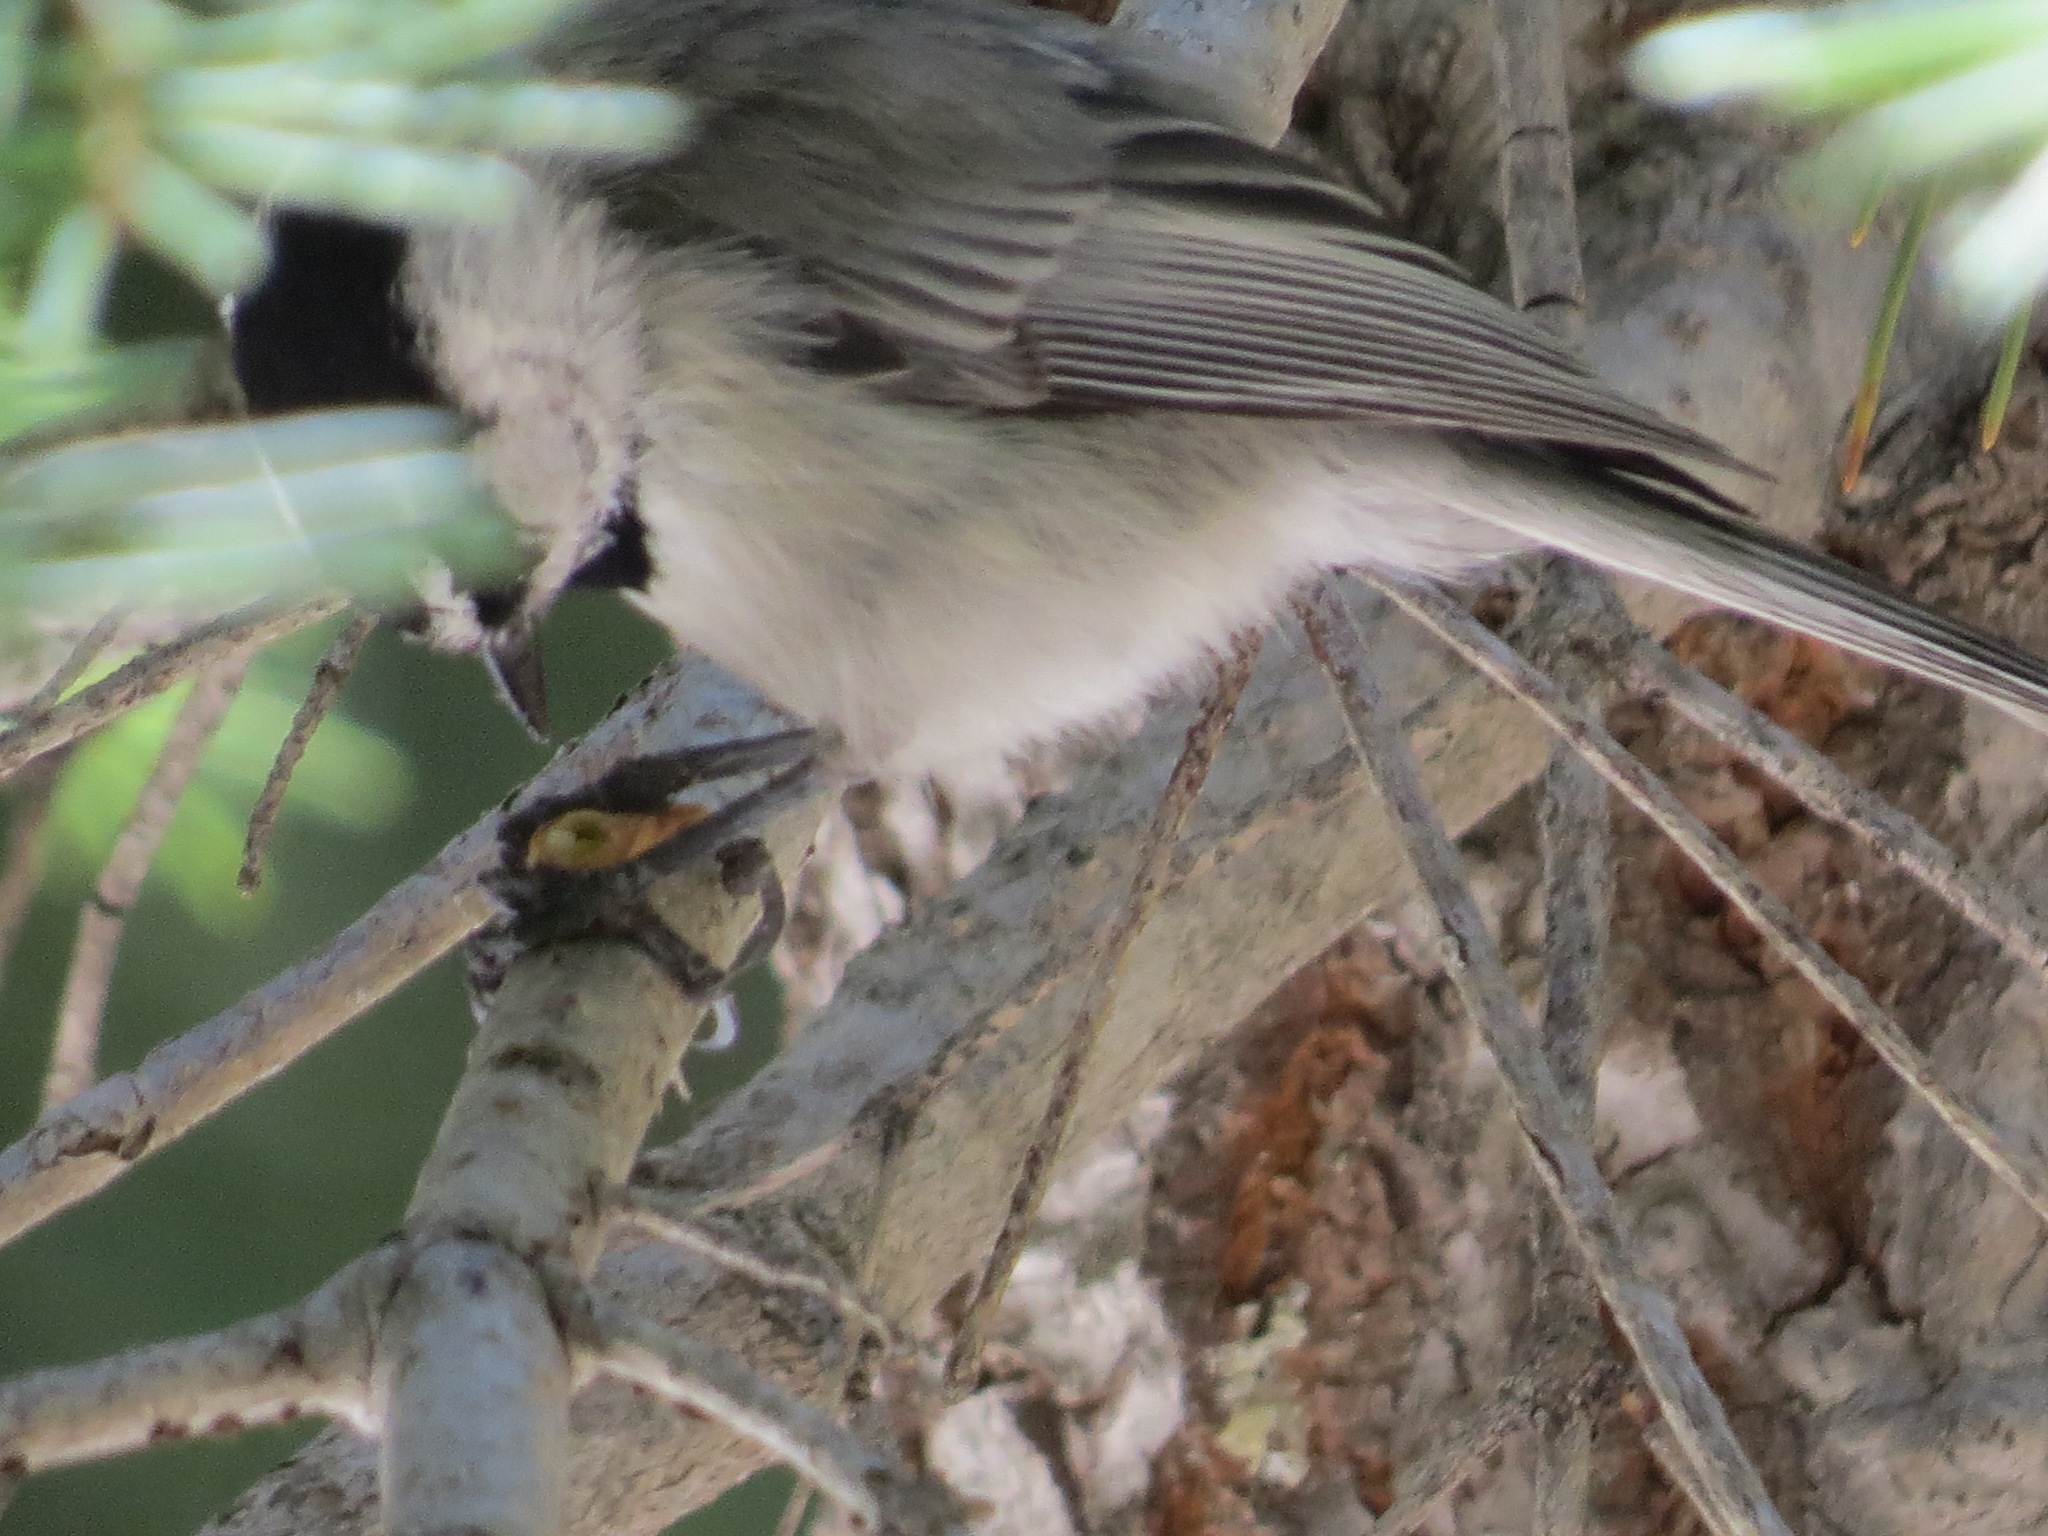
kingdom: Animalia
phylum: Chordata
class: Aves
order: Passeriformes
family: Paridae
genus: Poecile
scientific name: Poecile gambeli
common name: Mountain chickadee
